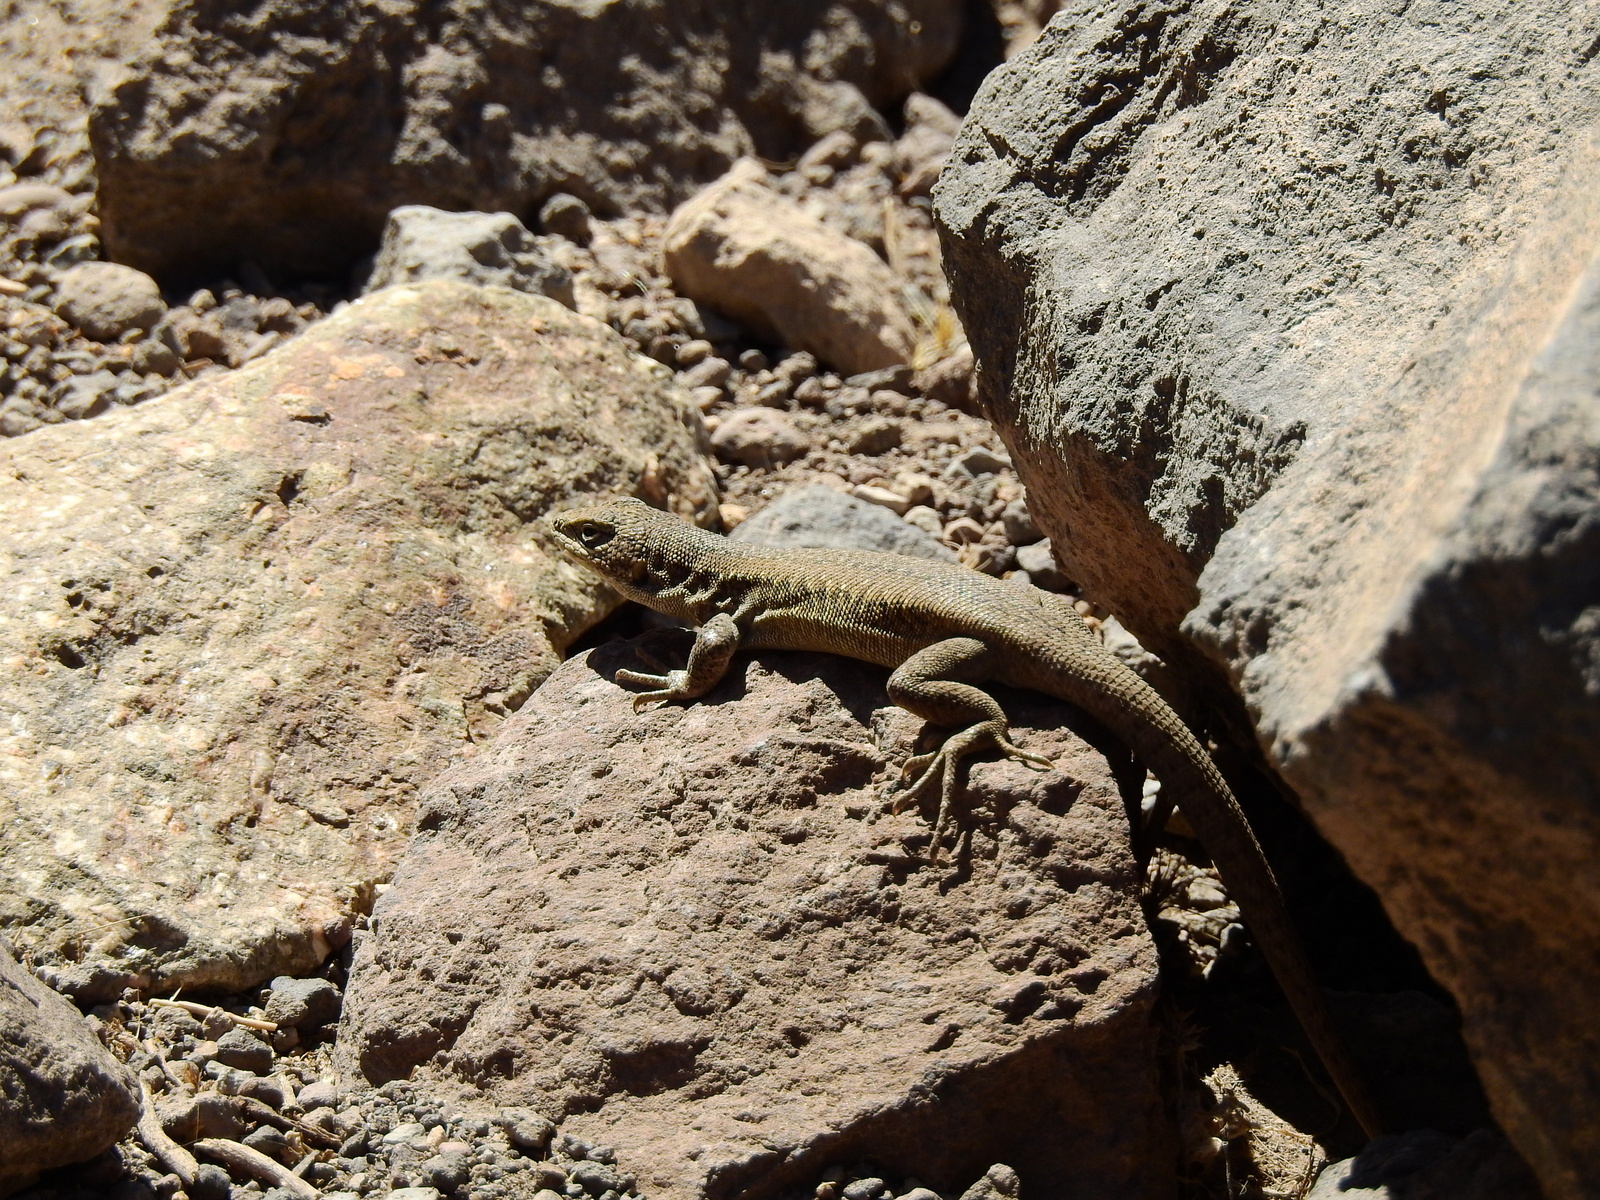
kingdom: Animalia
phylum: Chordata
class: Squamata
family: Liolaemidae
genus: Liolaemus
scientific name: Liolaemus smaug
